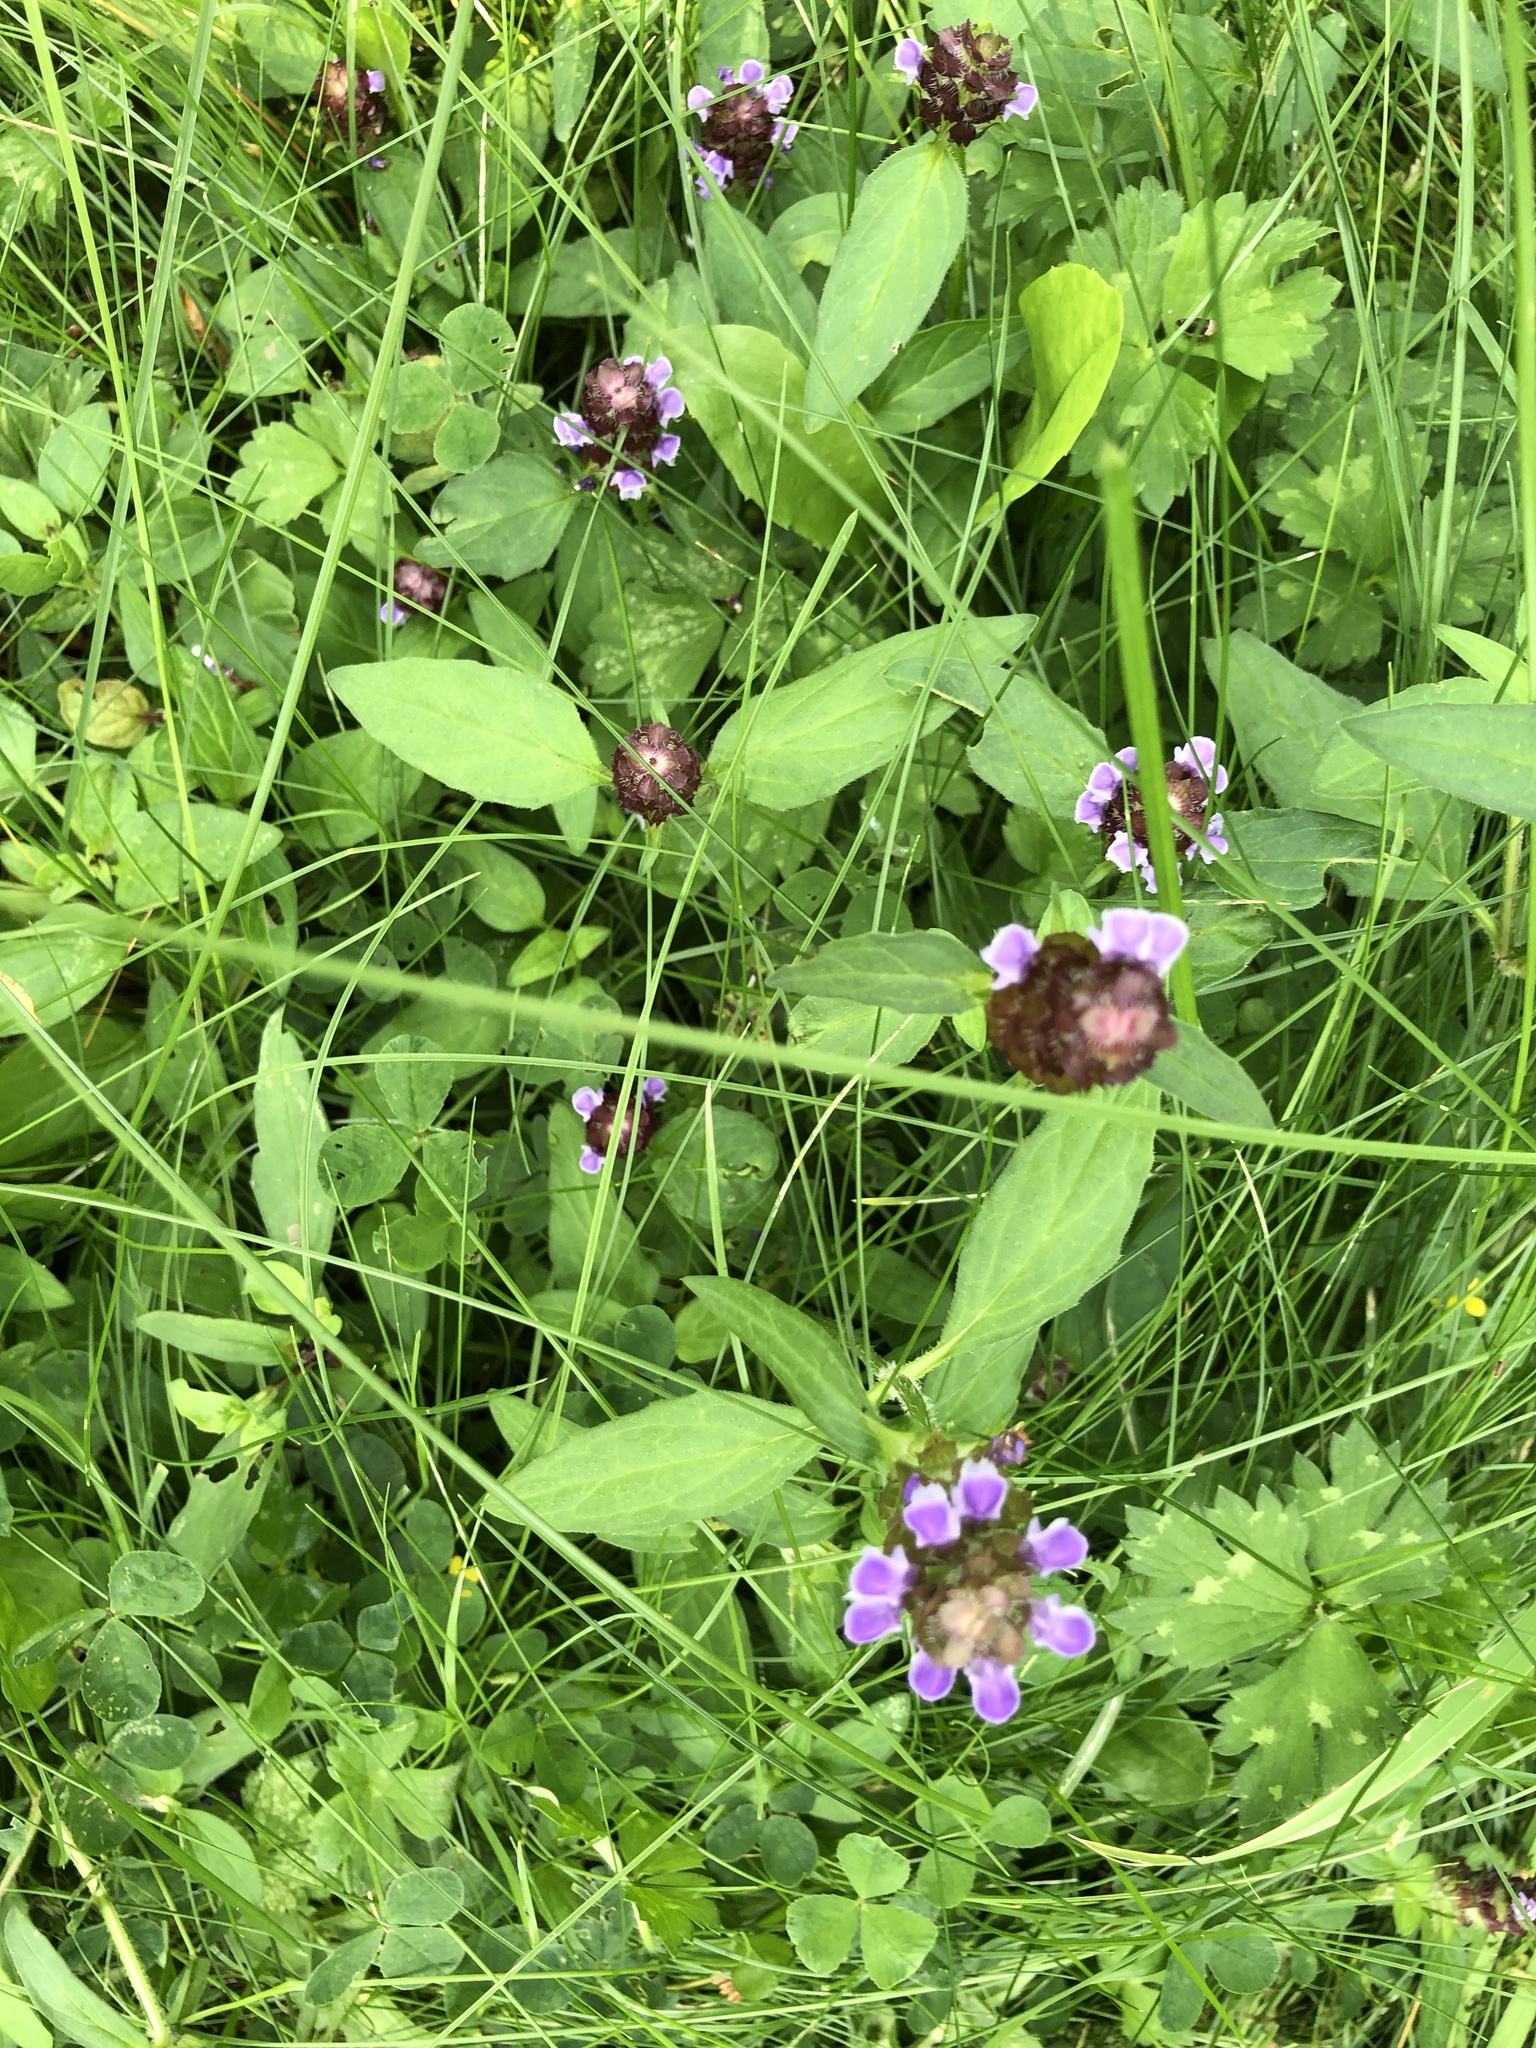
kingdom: Plantae
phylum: Tracheophyta
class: Magnoliopsida
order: Lamiales
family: Lamiaceae
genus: Prunella
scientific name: Prunella vulgaris
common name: Heal-all
